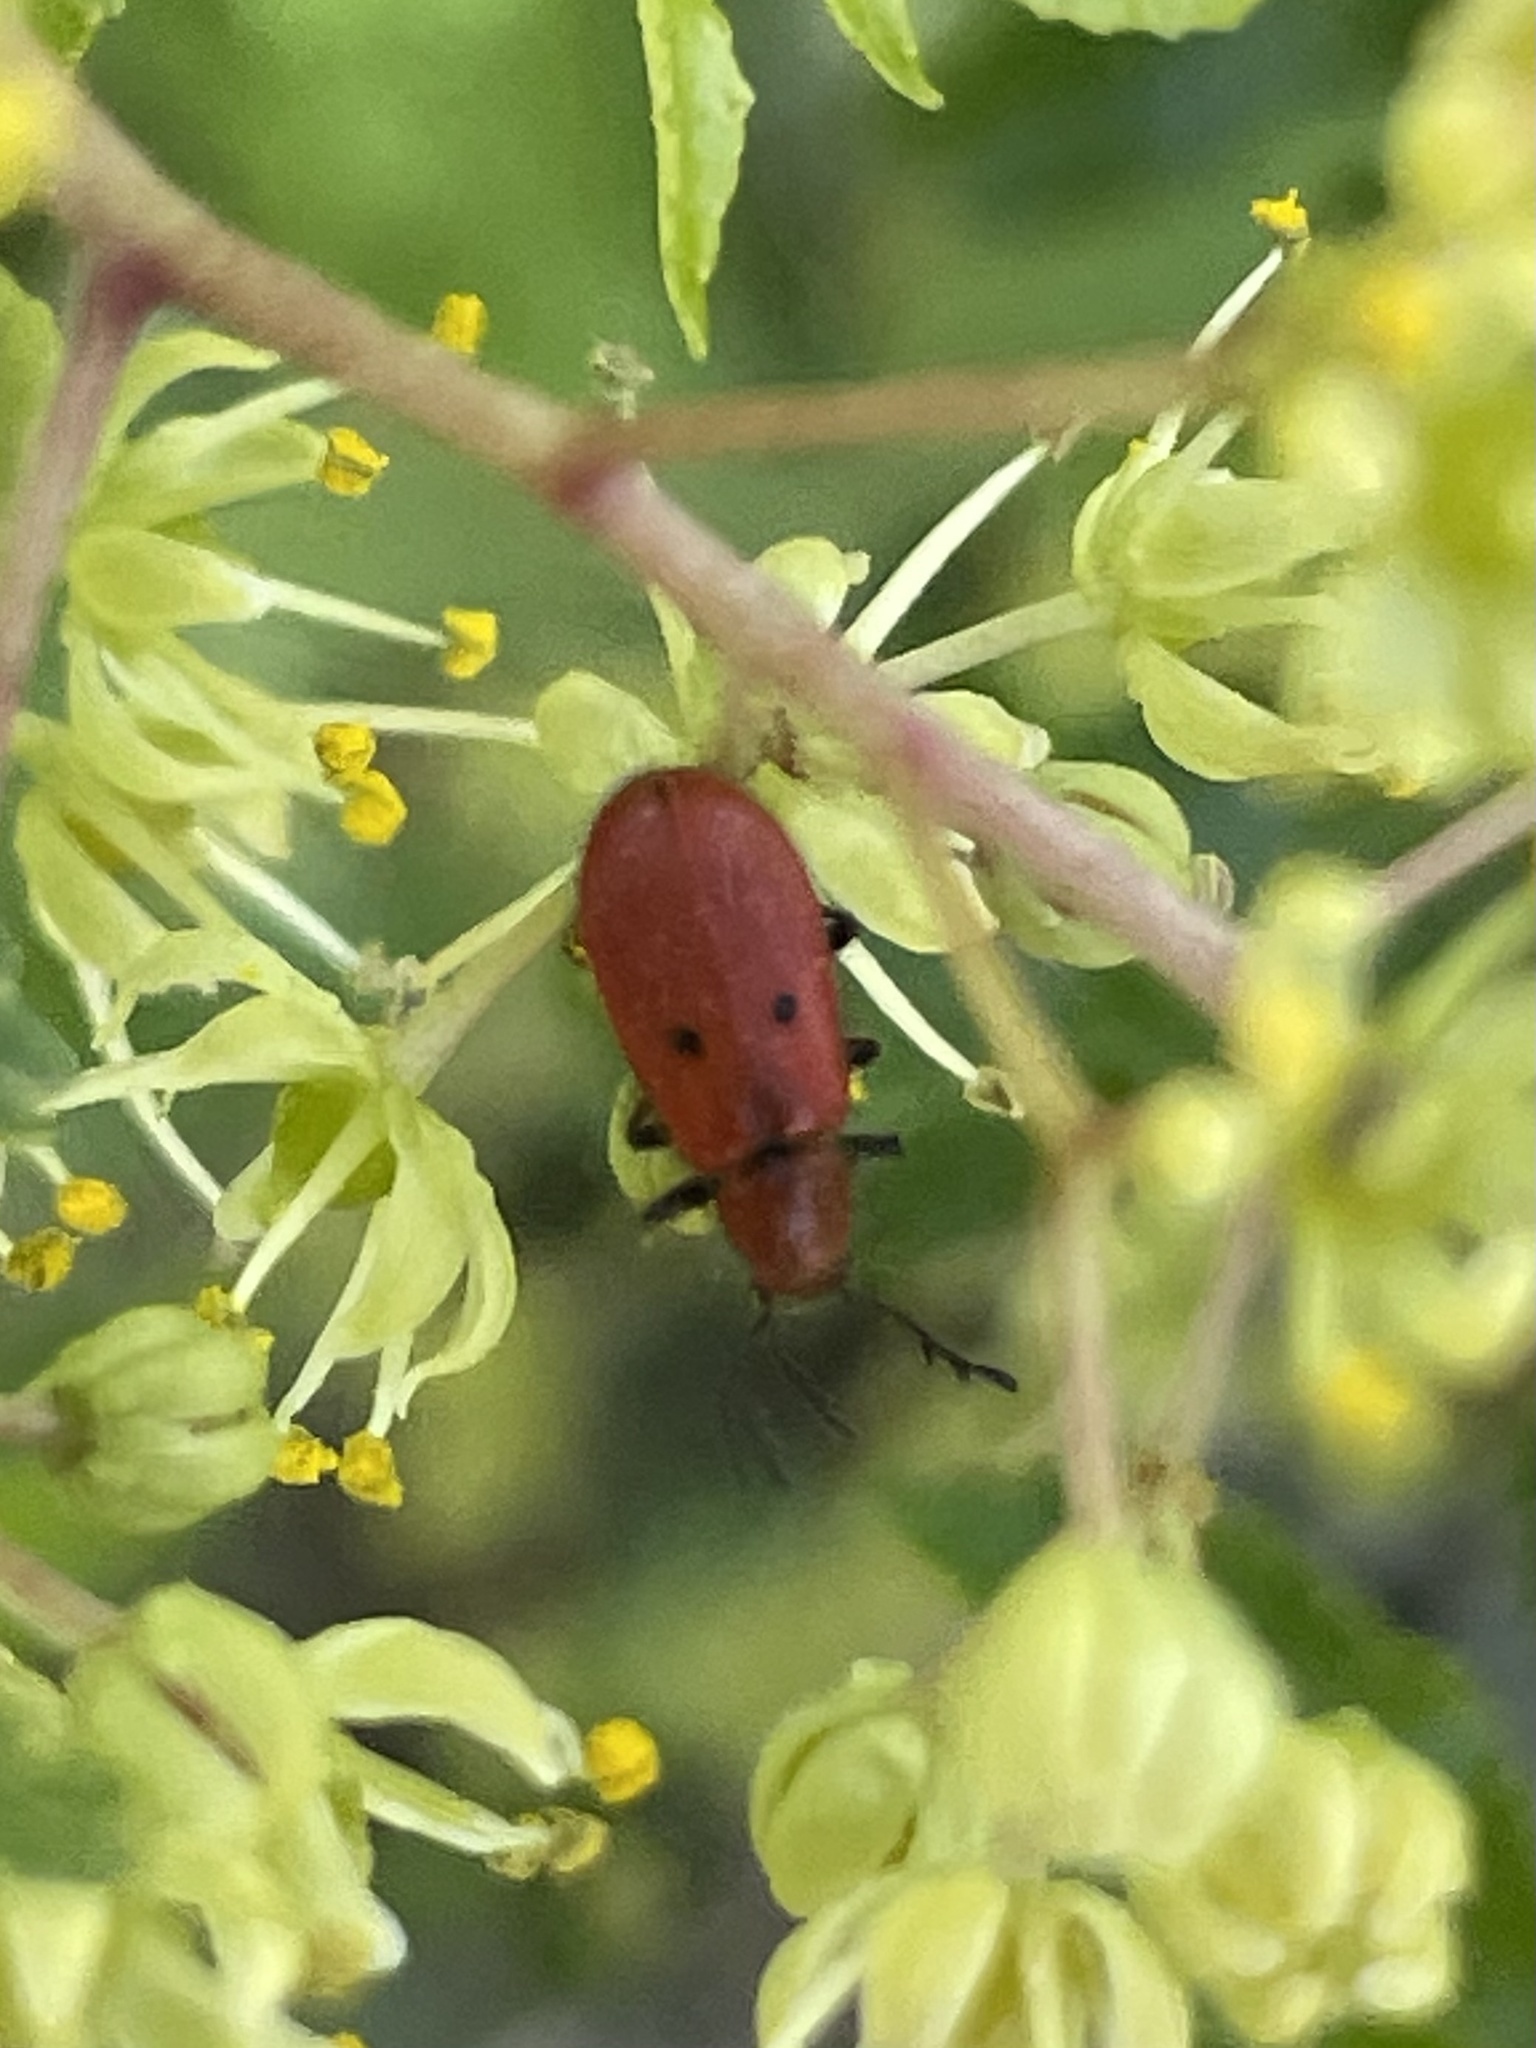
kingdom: Animalia
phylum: Arthropoda
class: Insecta
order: Coleoptera
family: Cleridae
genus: Pelonides
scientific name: Pelonides
